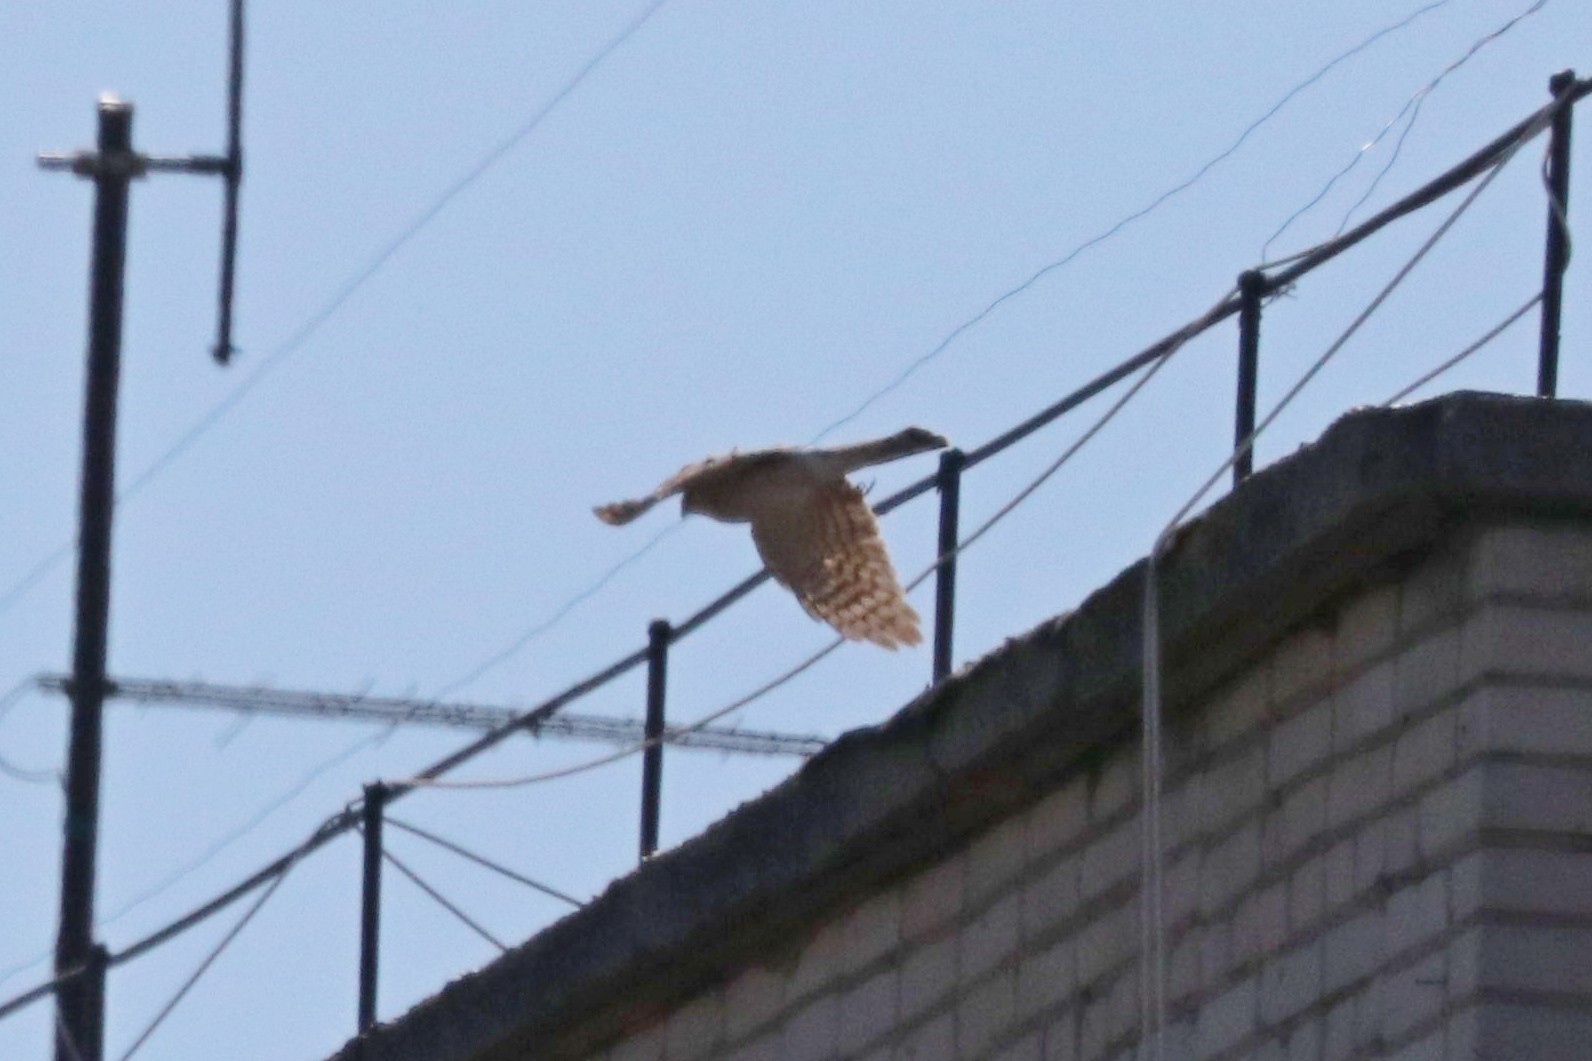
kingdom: Animalia
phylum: Chordata
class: Aves
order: Accipitriformes
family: Accipitridae
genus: Accipiter
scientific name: Accipiter nisus
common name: Eurasian sparrowhawk
